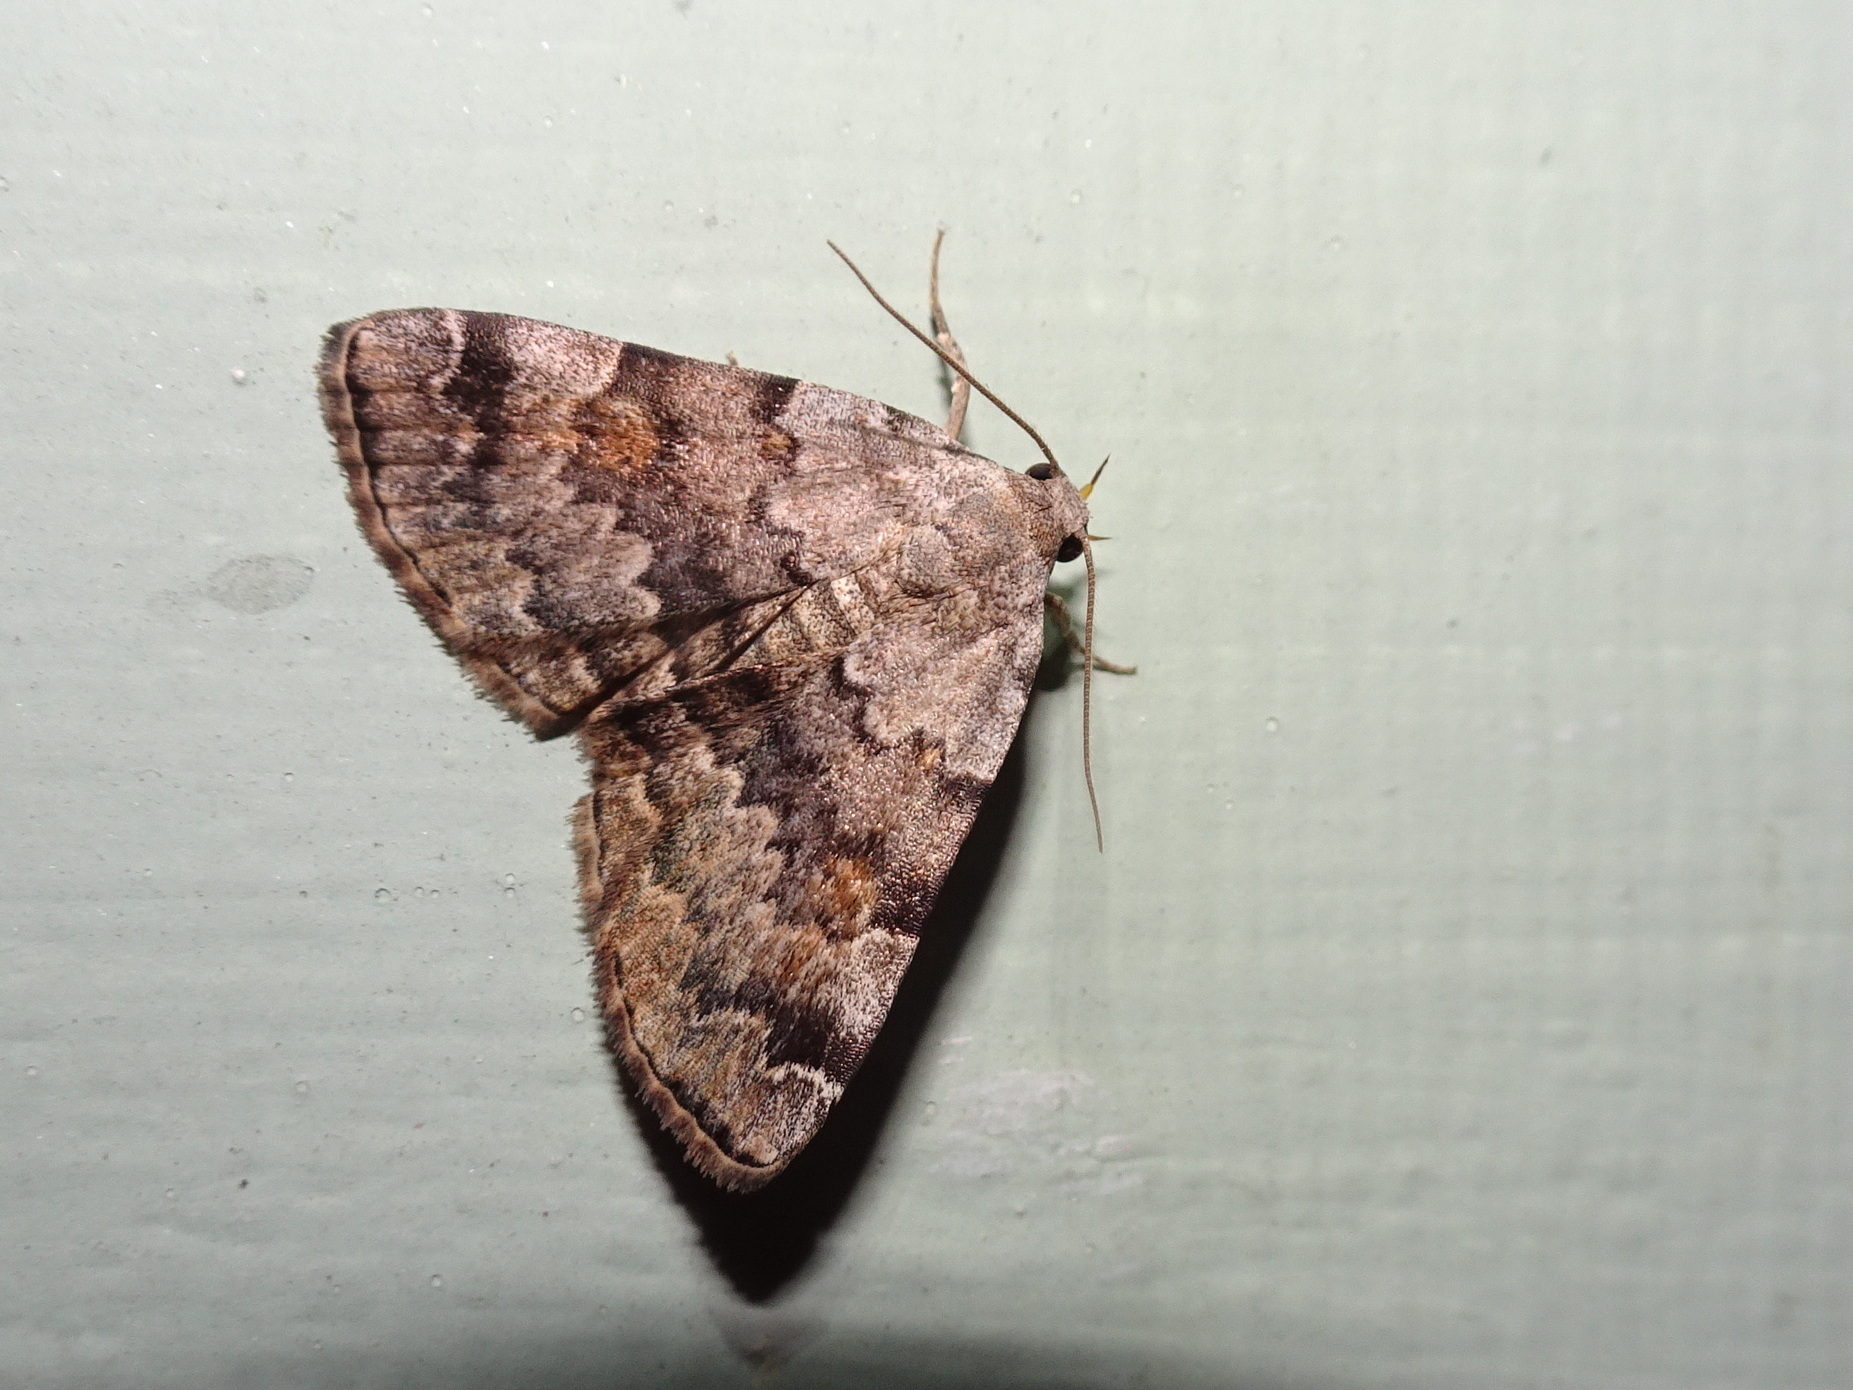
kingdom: Animalia
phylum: Arthropoda
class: Insecta
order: Lepidoptera
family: Erebidae
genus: Idia
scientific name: Idia americalis
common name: American idia moth
